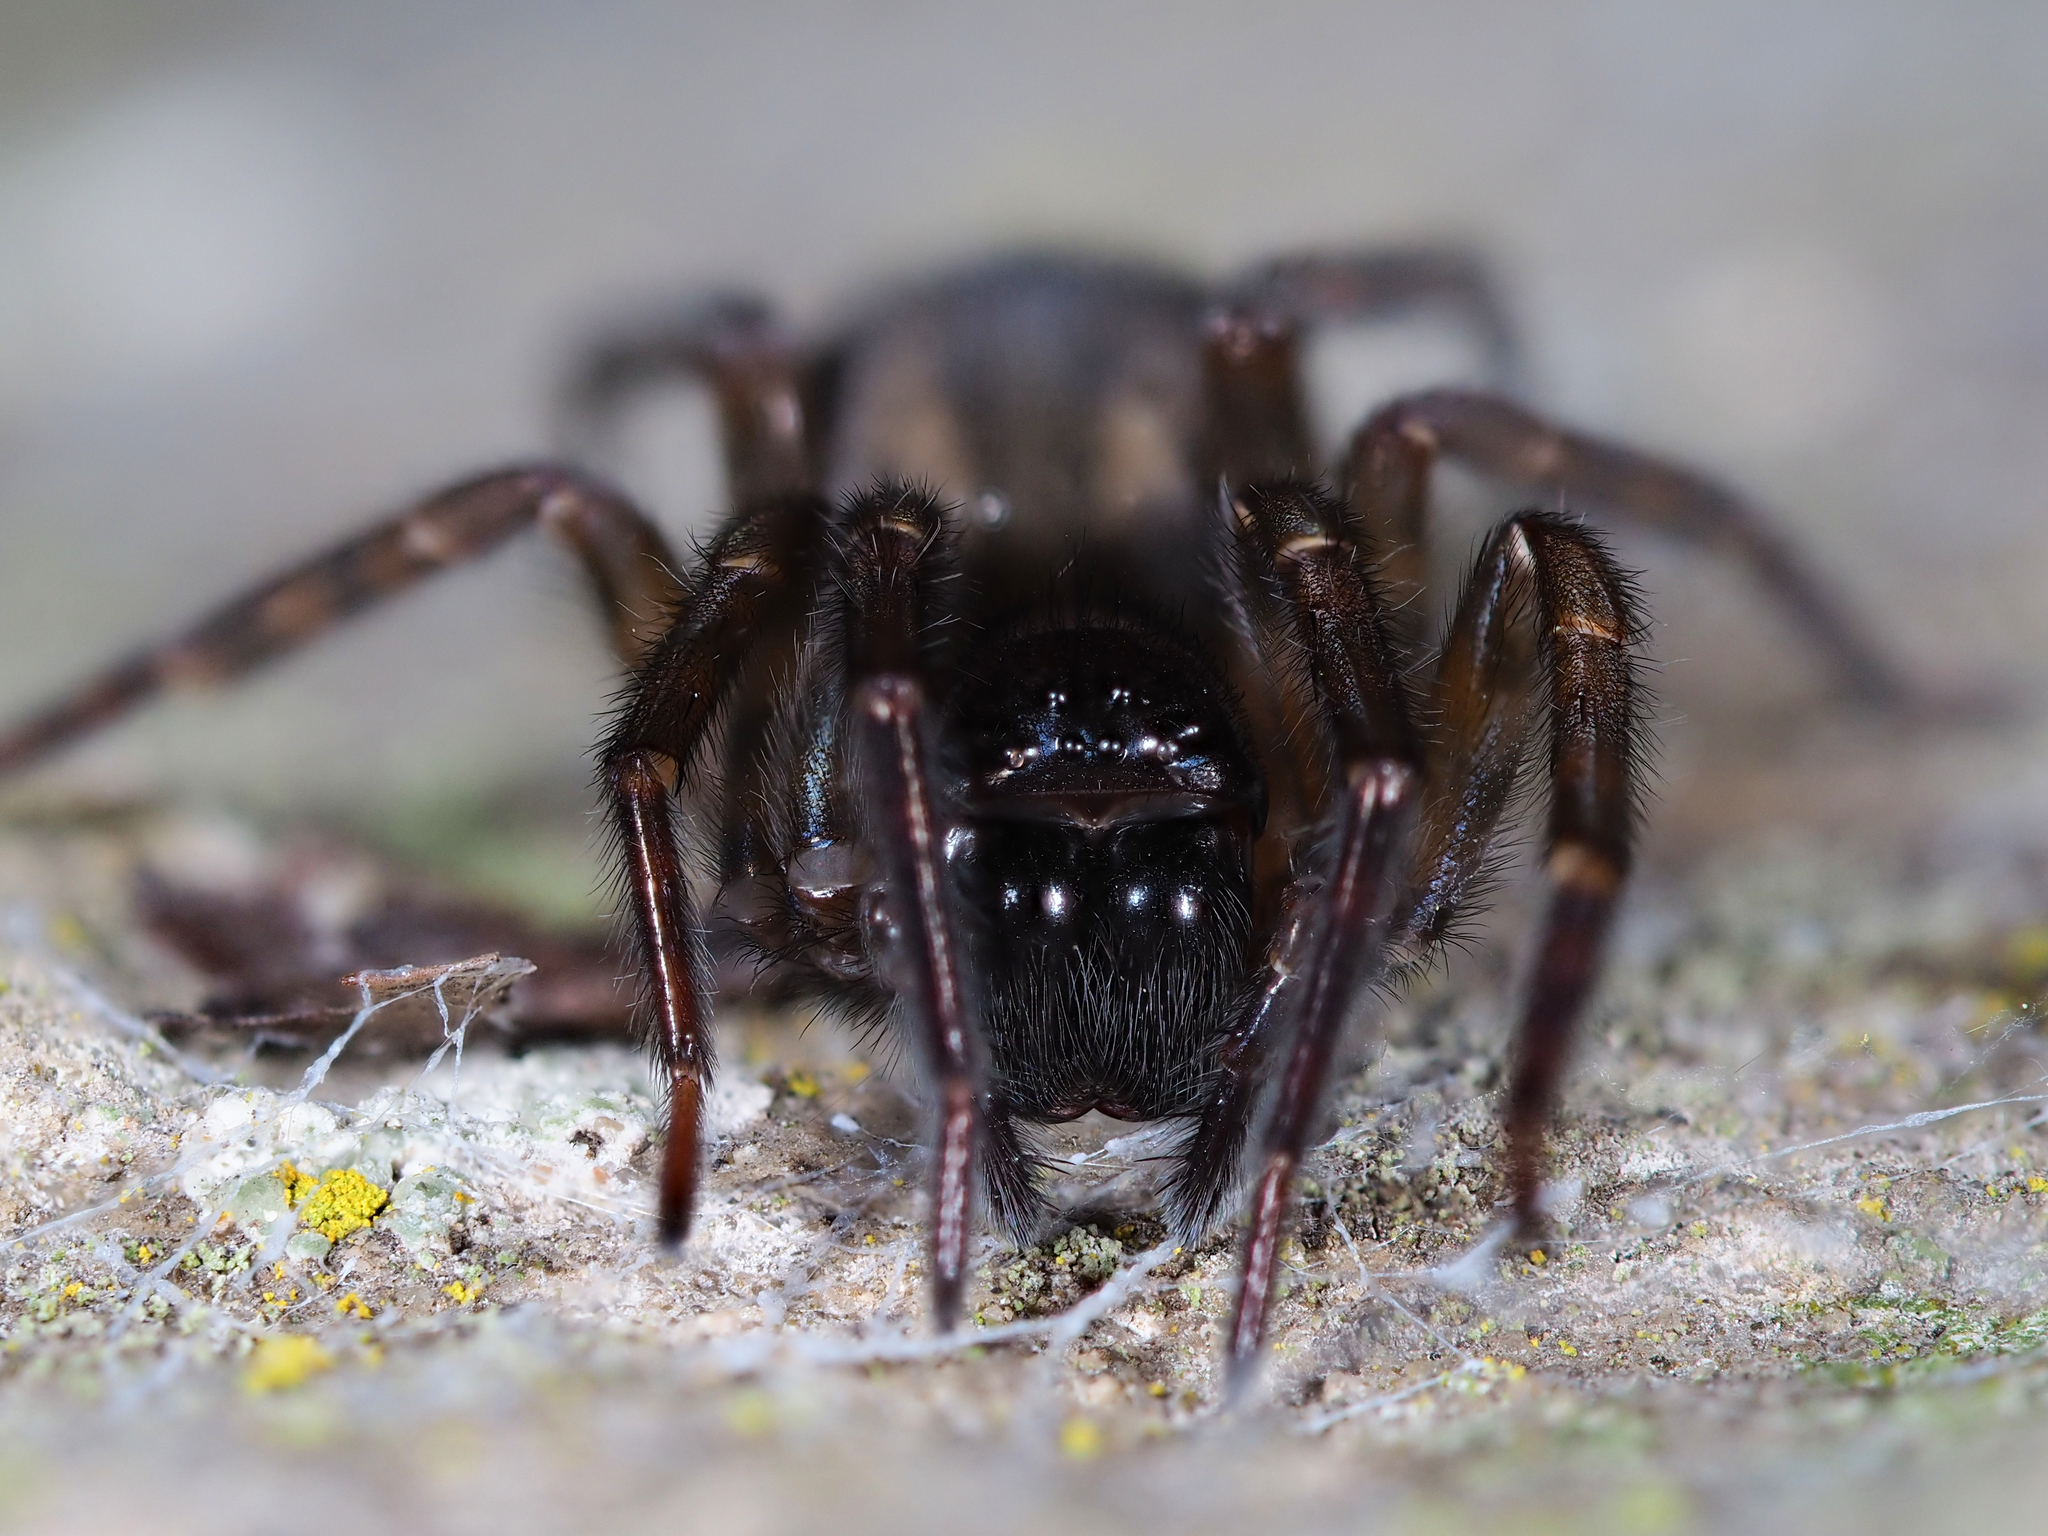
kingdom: Animalia
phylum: Arthropoda
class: Arachnida
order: Araneae
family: Amaurobiidae
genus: Amaurobius
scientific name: Amaurobius similis
